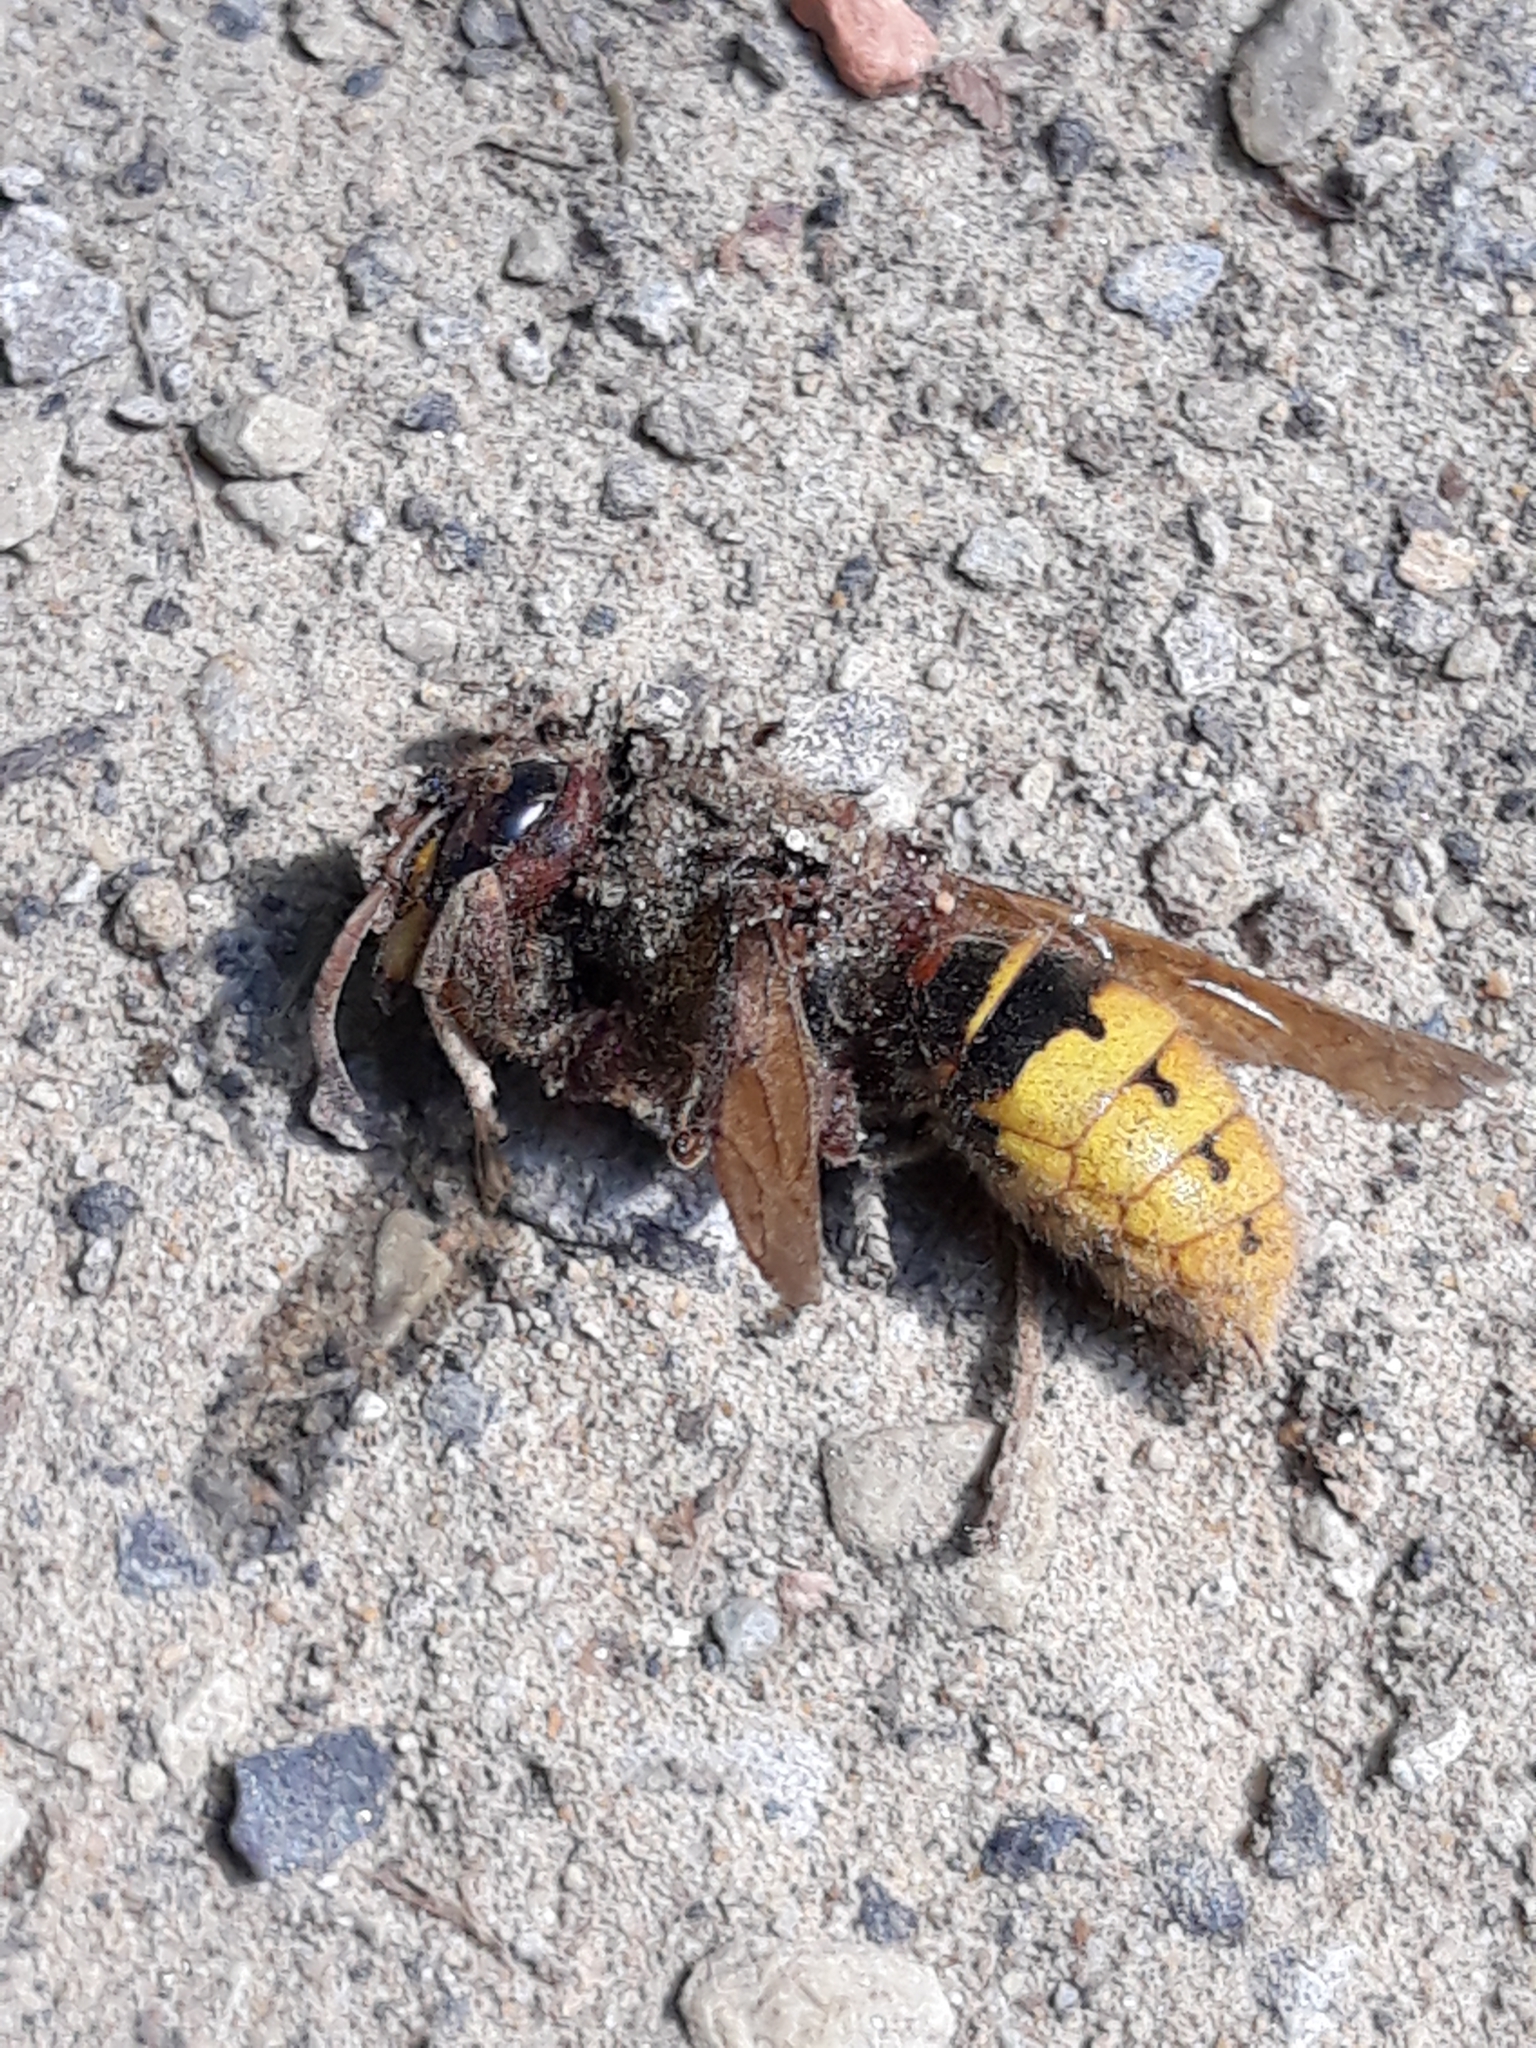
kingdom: Animalia
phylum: Arthropoda
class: Insecta
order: Hymenoptera
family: Vespidae
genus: Vespa
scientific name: Vespa crabro
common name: Hornet
